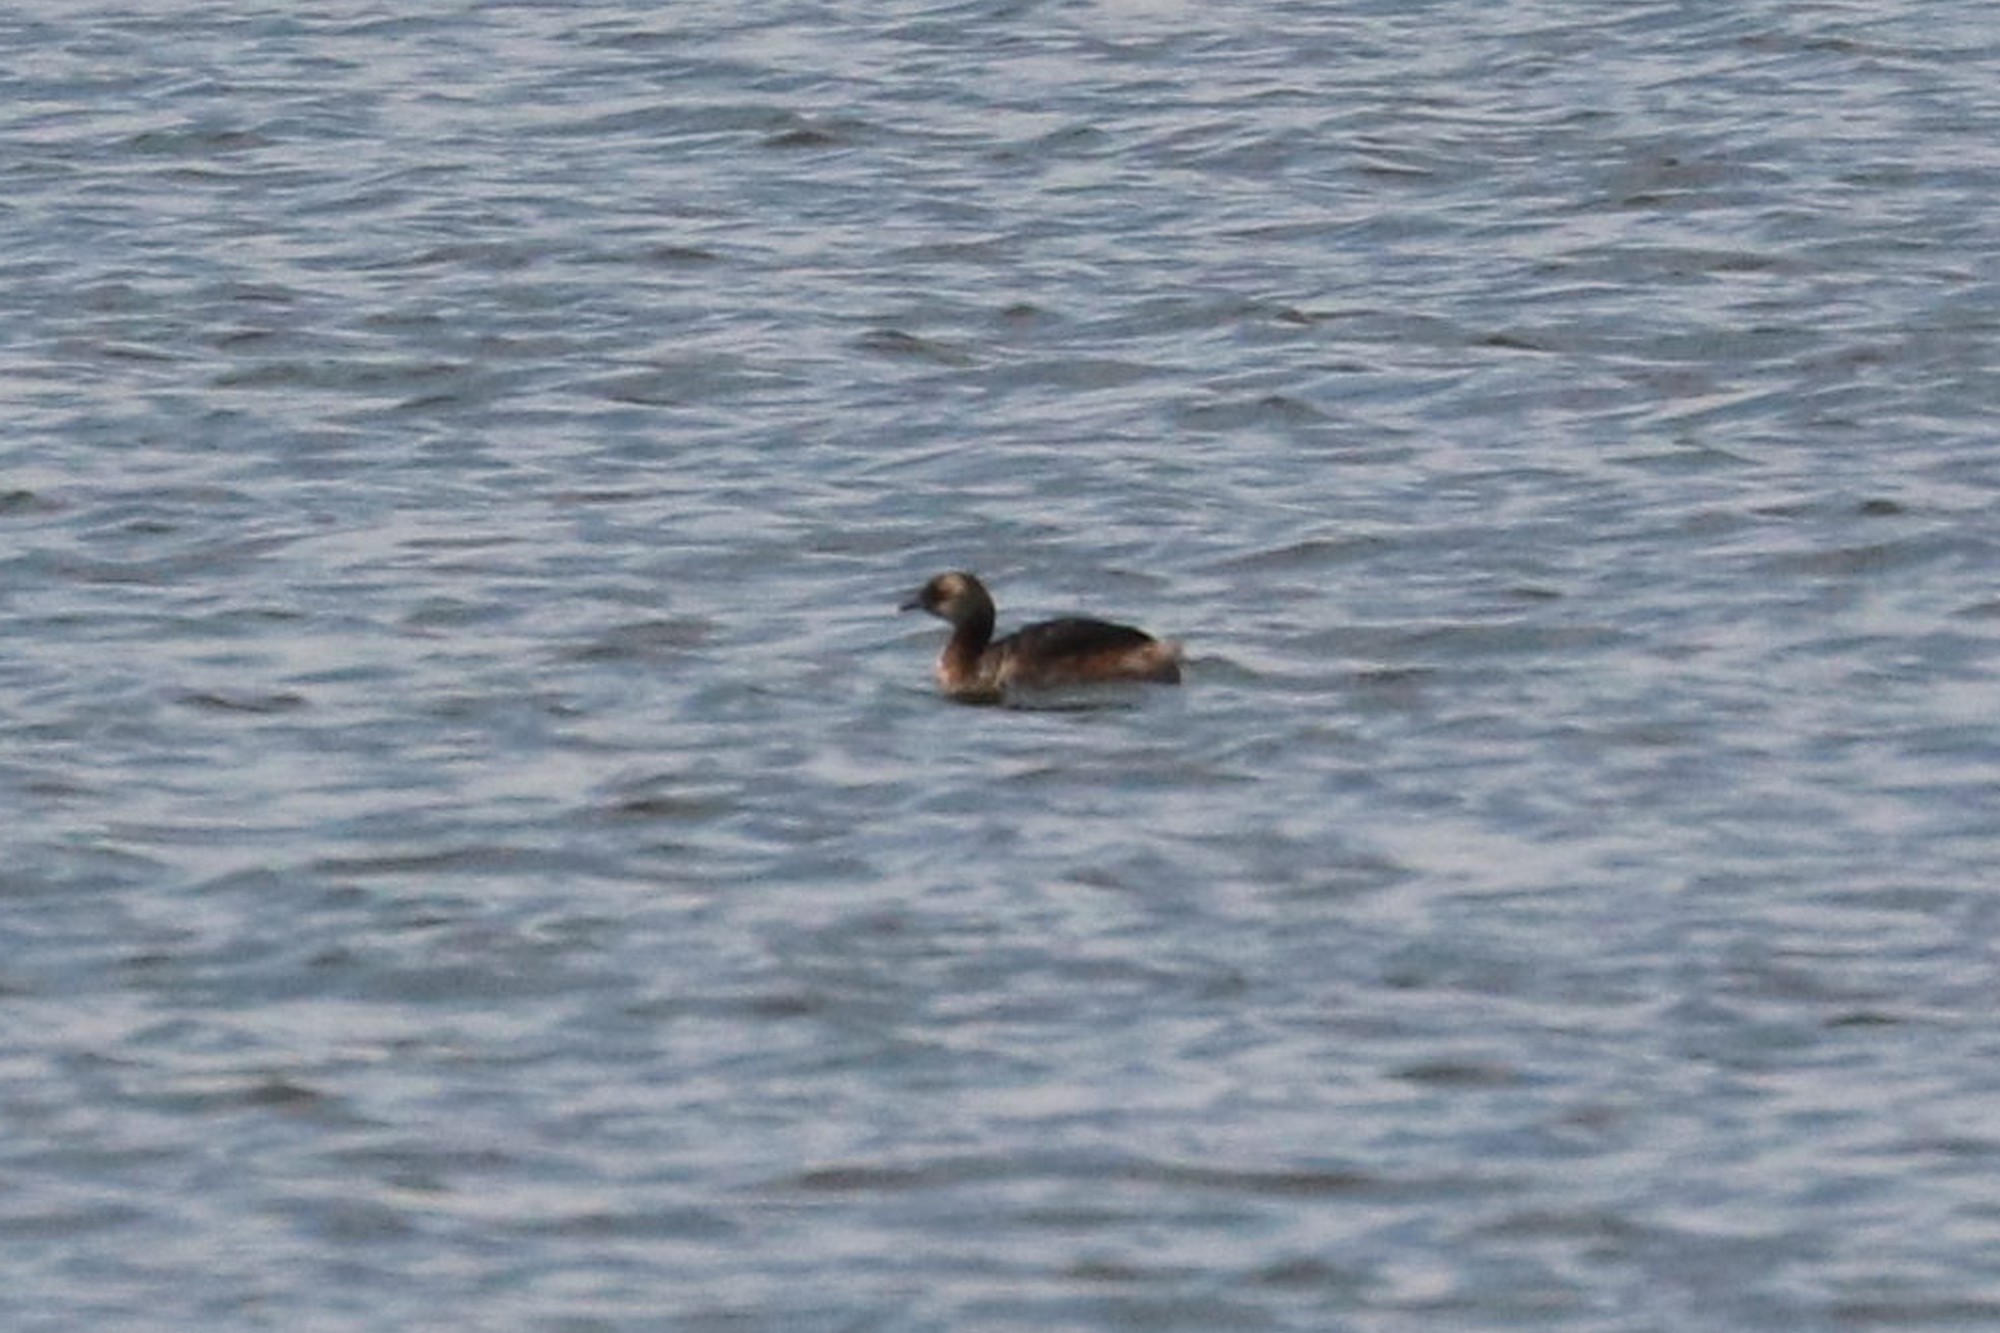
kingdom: Animalia
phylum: Chordata
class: Aves
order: Podicipediformes
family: Podicipedidae
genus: Podiceps
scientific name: Podiceps auritus
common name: Horned grebe
